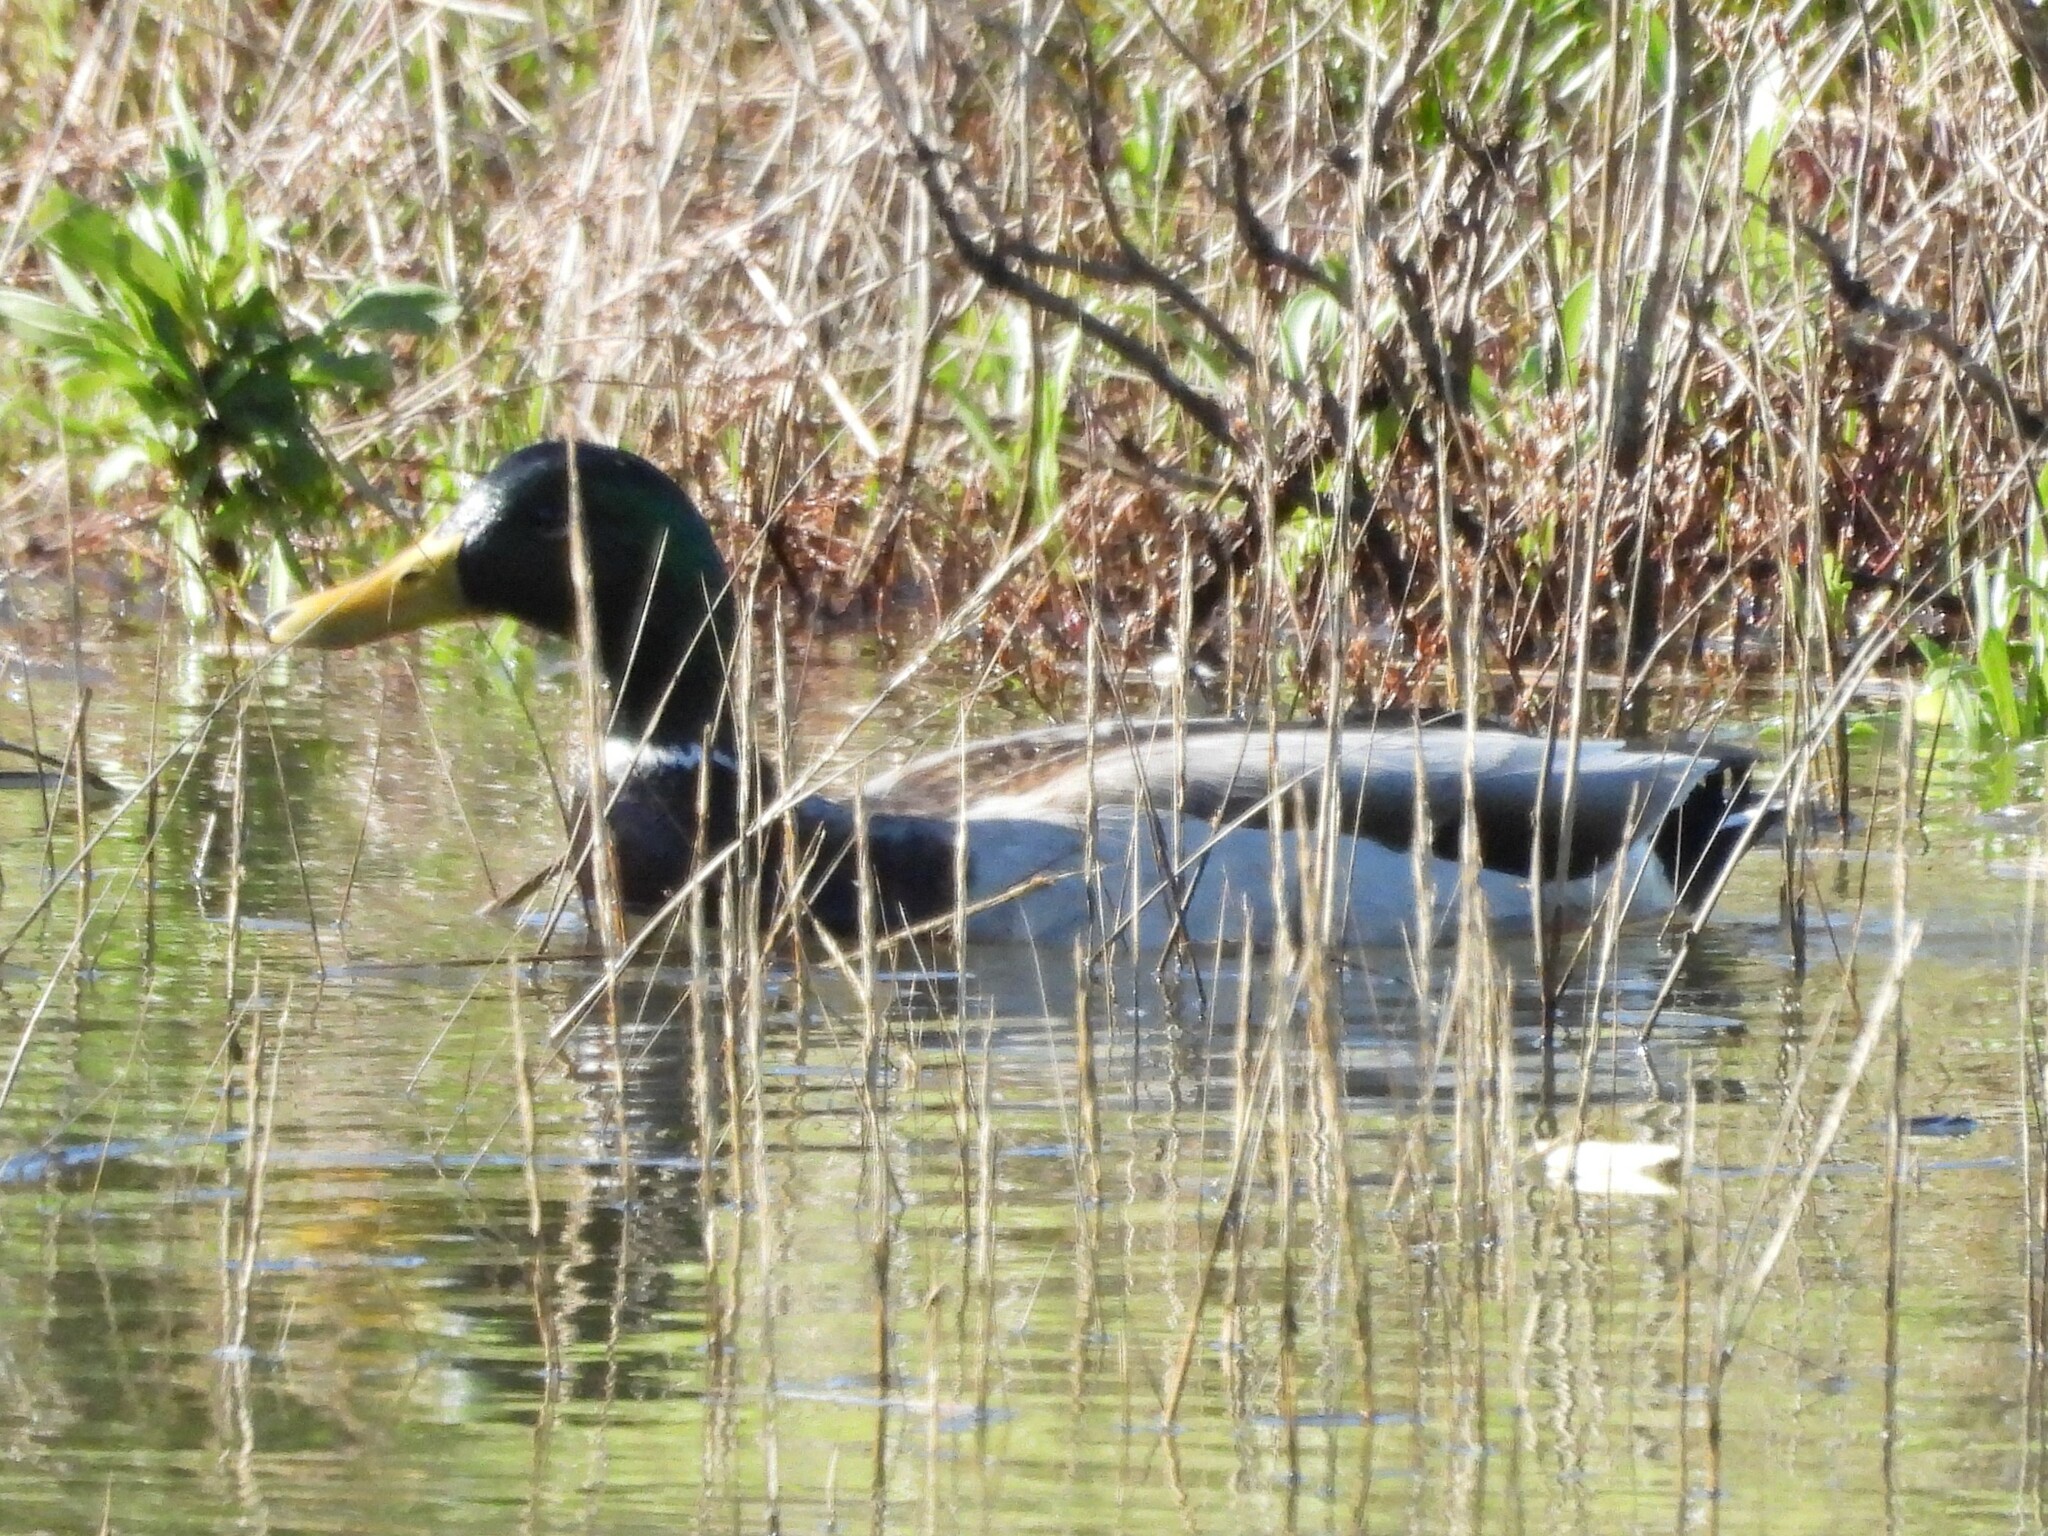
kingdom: Animalia
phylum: Chordata
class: Aves
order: Anseriformes
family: Anatidae
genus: Anas
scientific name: Anas platyrhynchos
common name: Mallard
